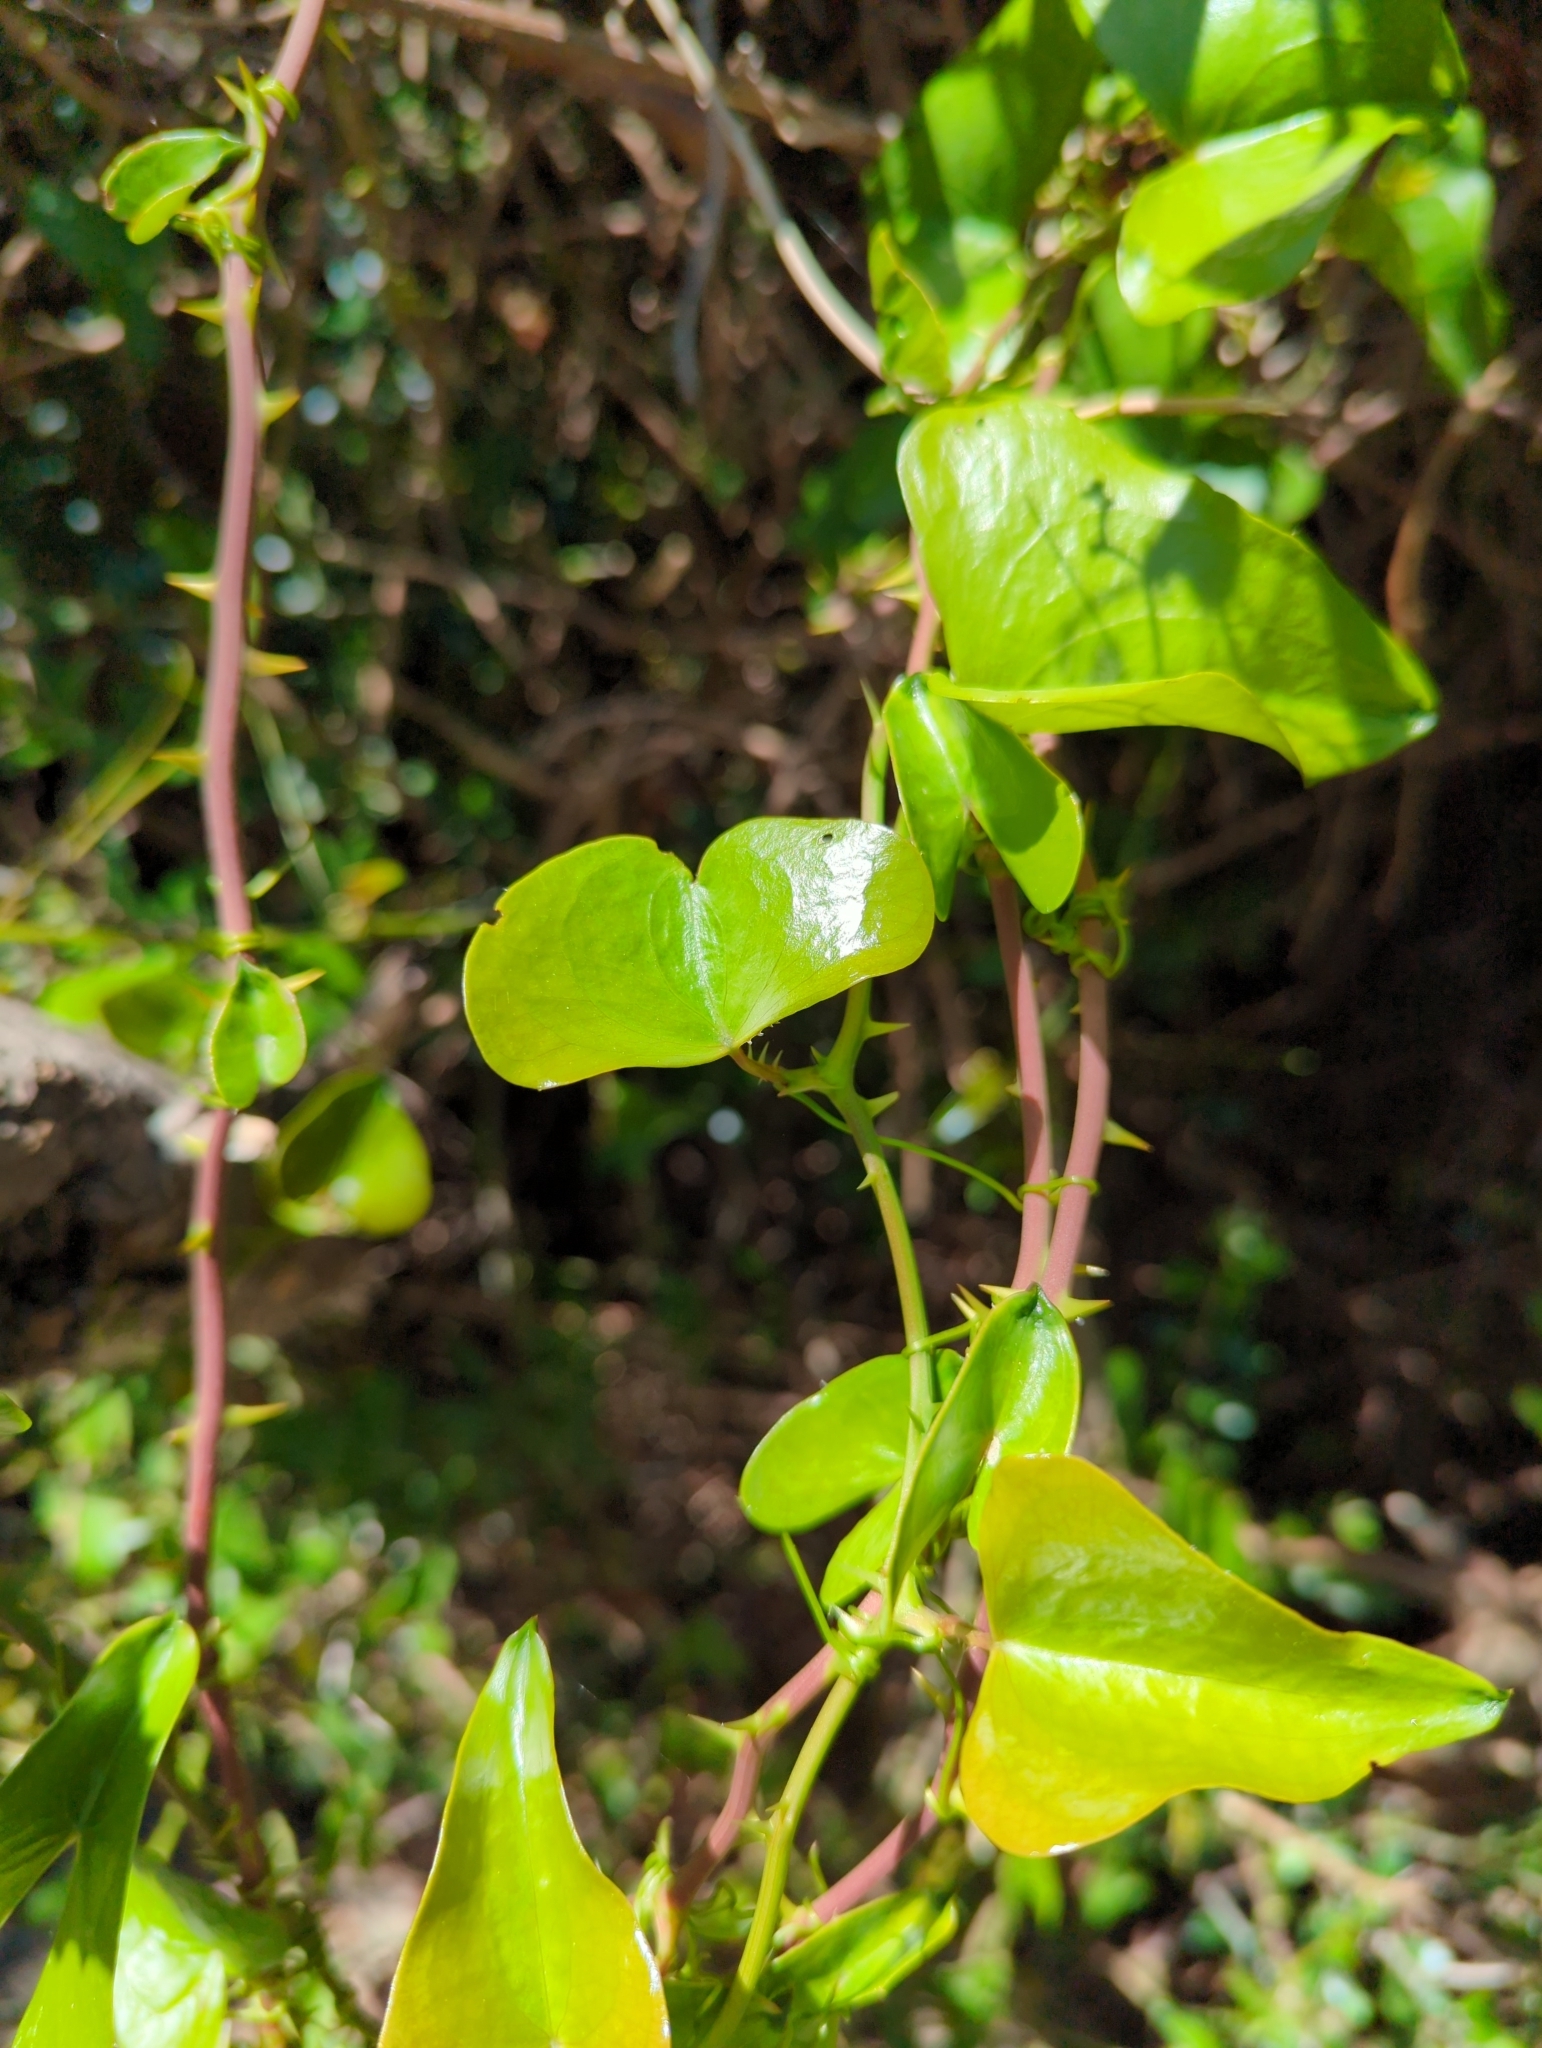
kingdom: Plantae
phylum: Tracheophyta
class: Liliopsida
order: Liliales
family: Smilacaceae
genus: Smilax
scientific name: Smilax aspera
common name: Common smilax
